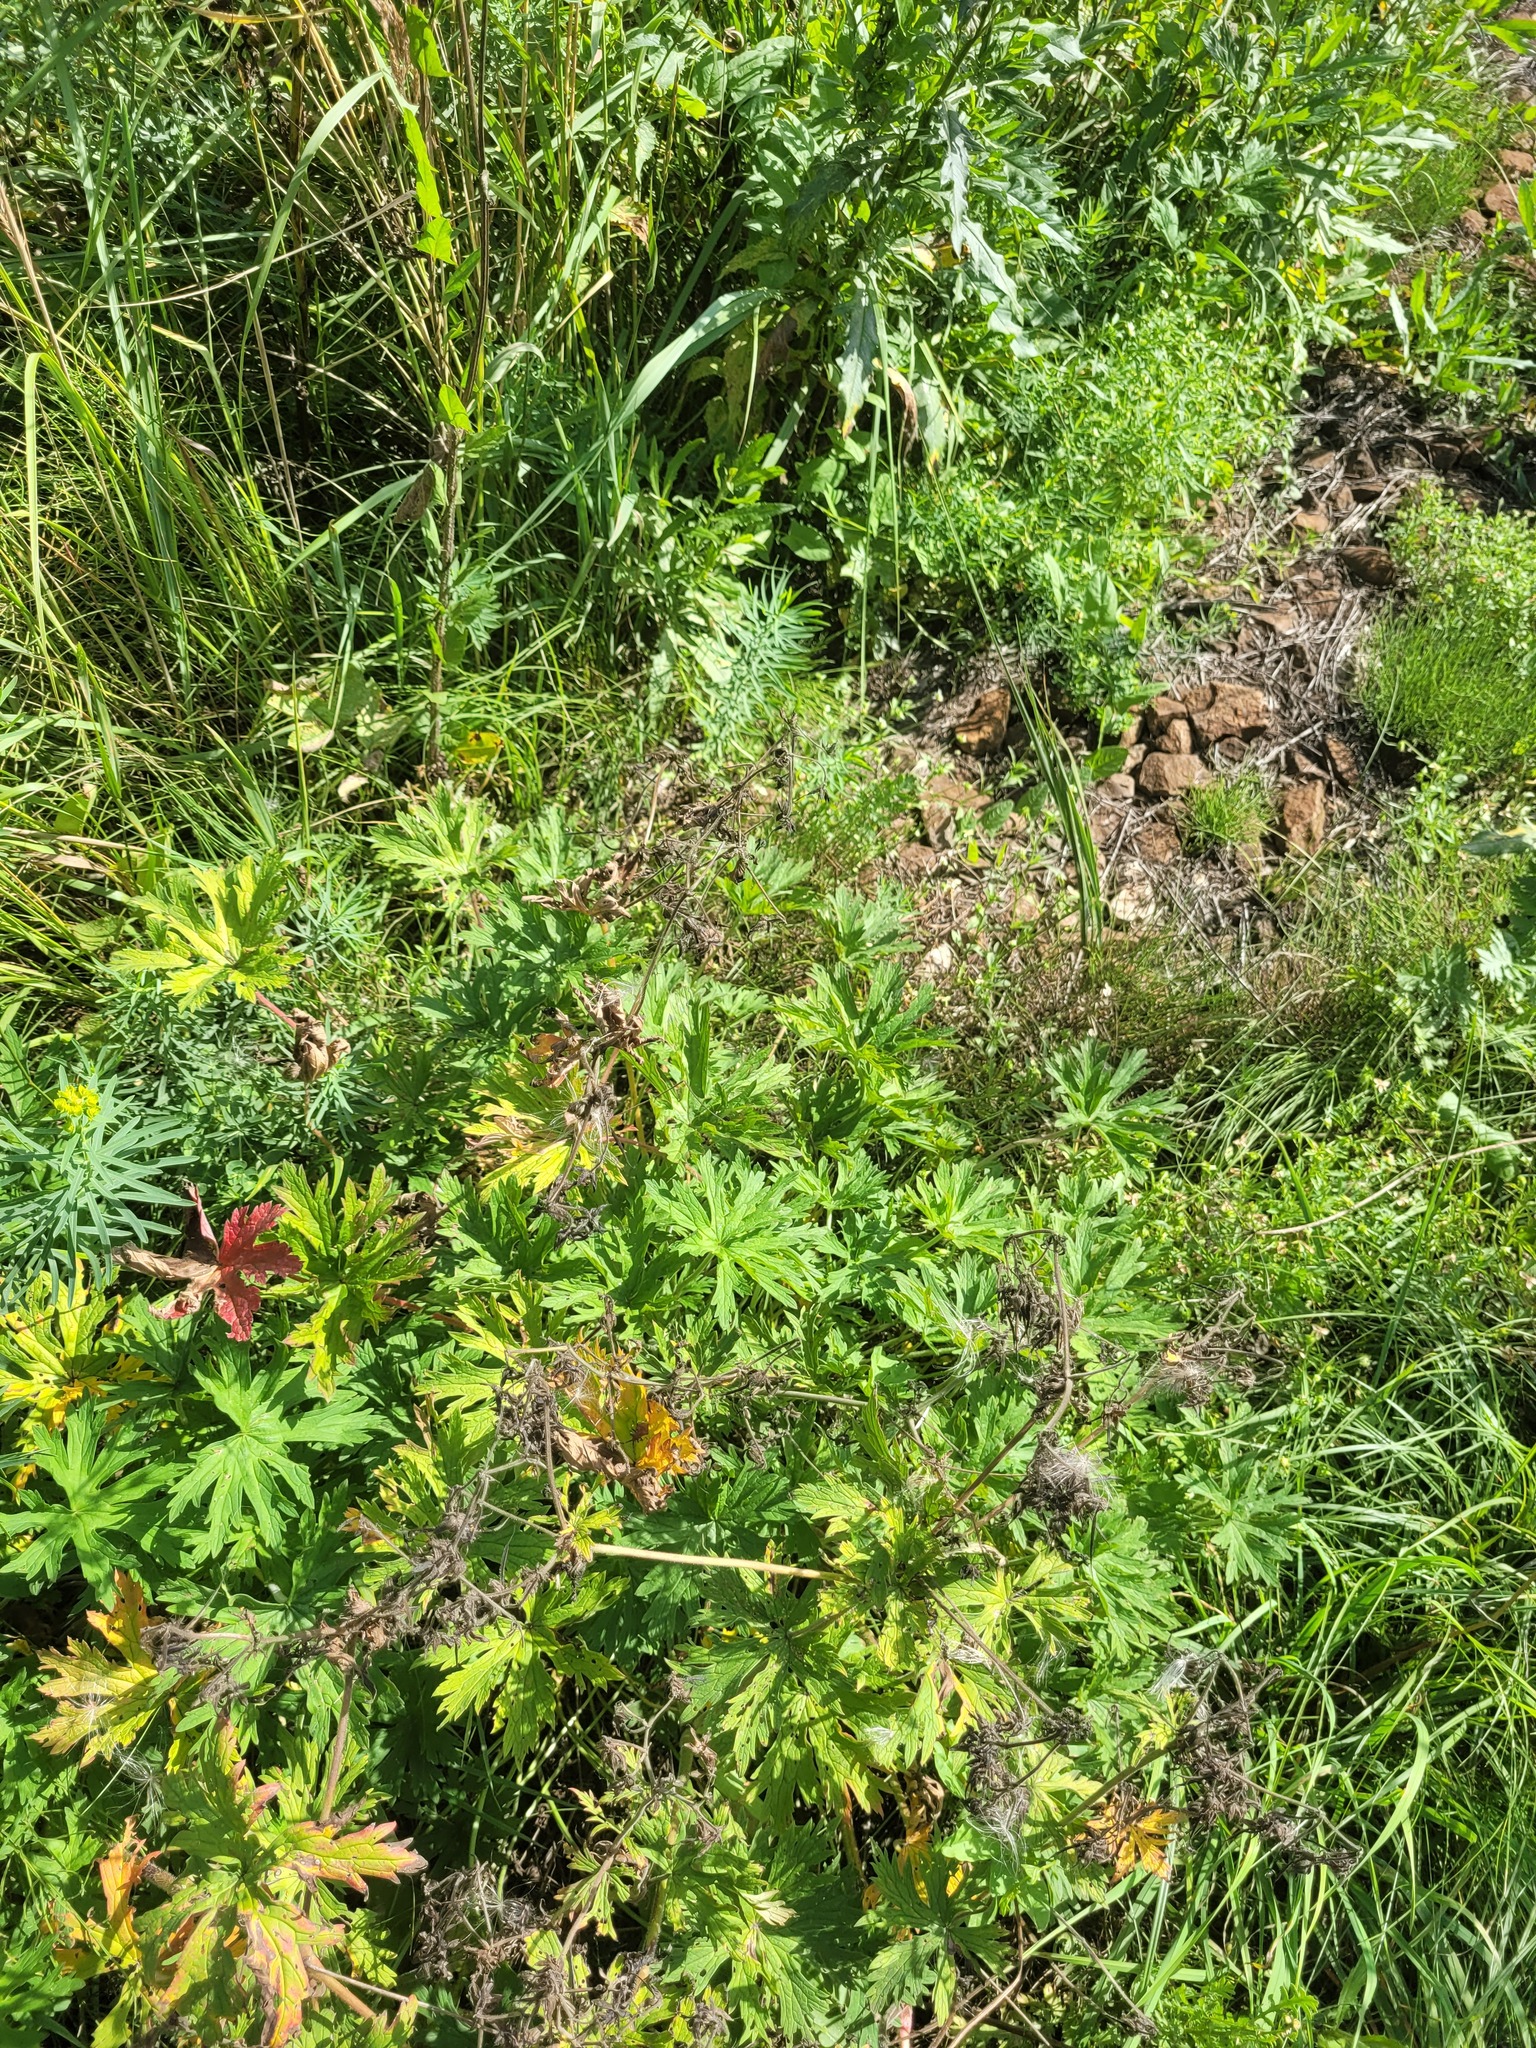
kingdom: Plantae
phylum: Tracheophyta
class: Magnoliopsida
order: Geraniales
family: Geraniaceae
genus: Geranium
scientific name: Geranium pratense
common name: Meadow crane's-bill
